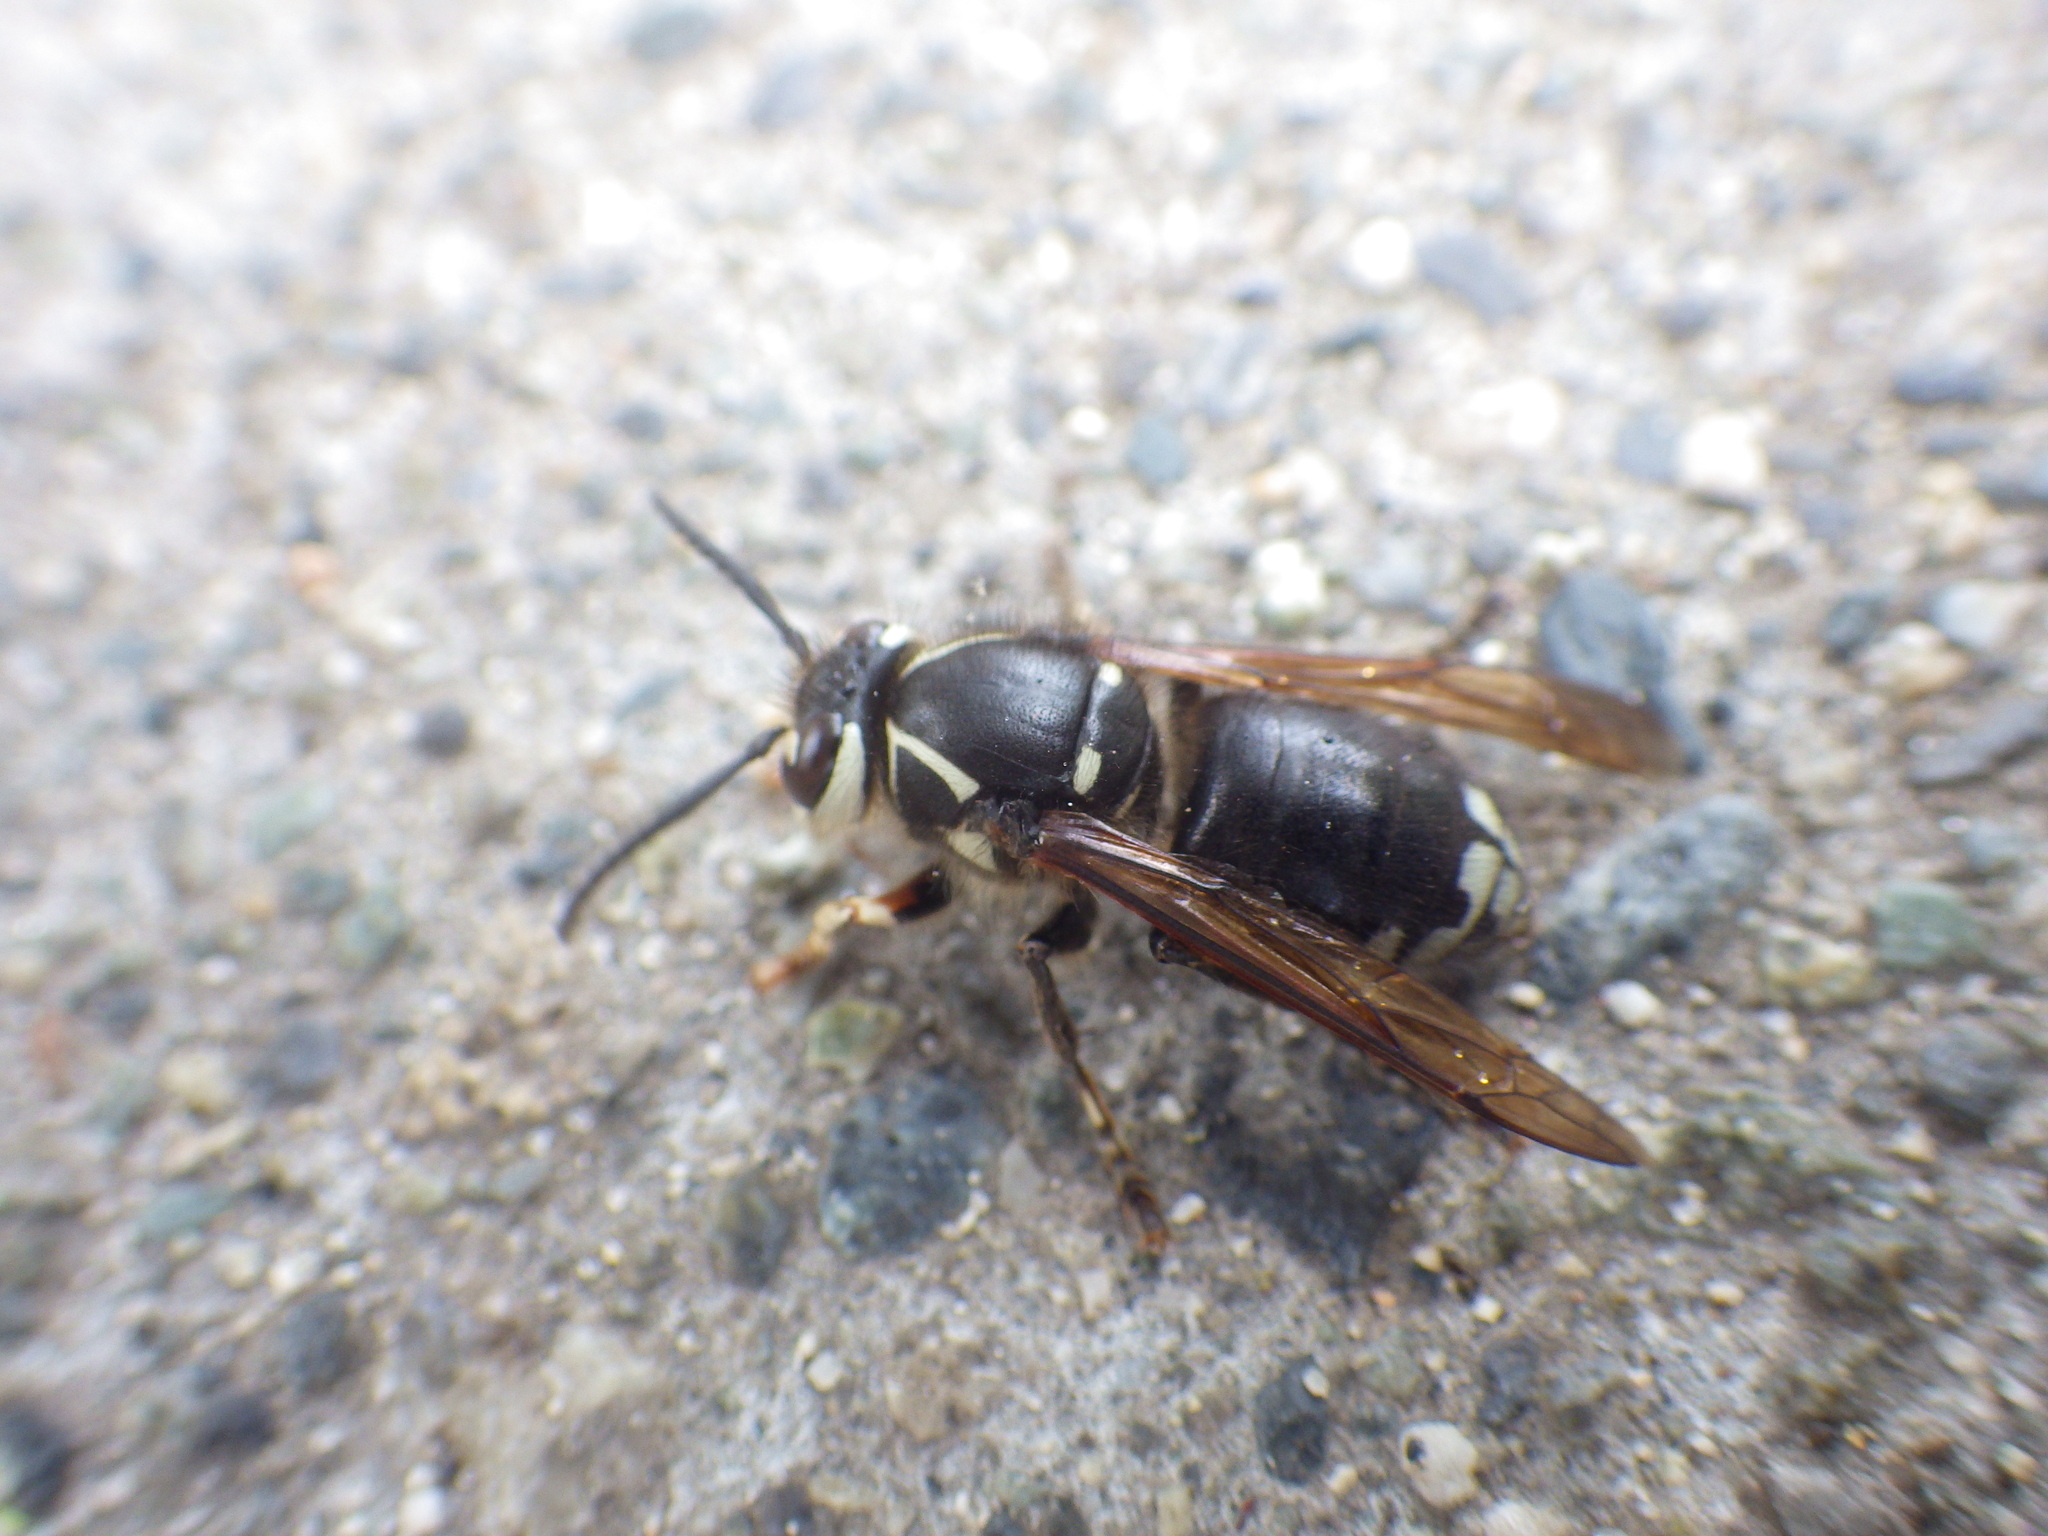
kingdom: Animalia
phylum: Arthropoda
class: Insecta
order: Hymenoptera
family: Vespidae
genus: Dolichovespula
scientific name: Dolichovespula maculata
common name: Bald-faced hornet
